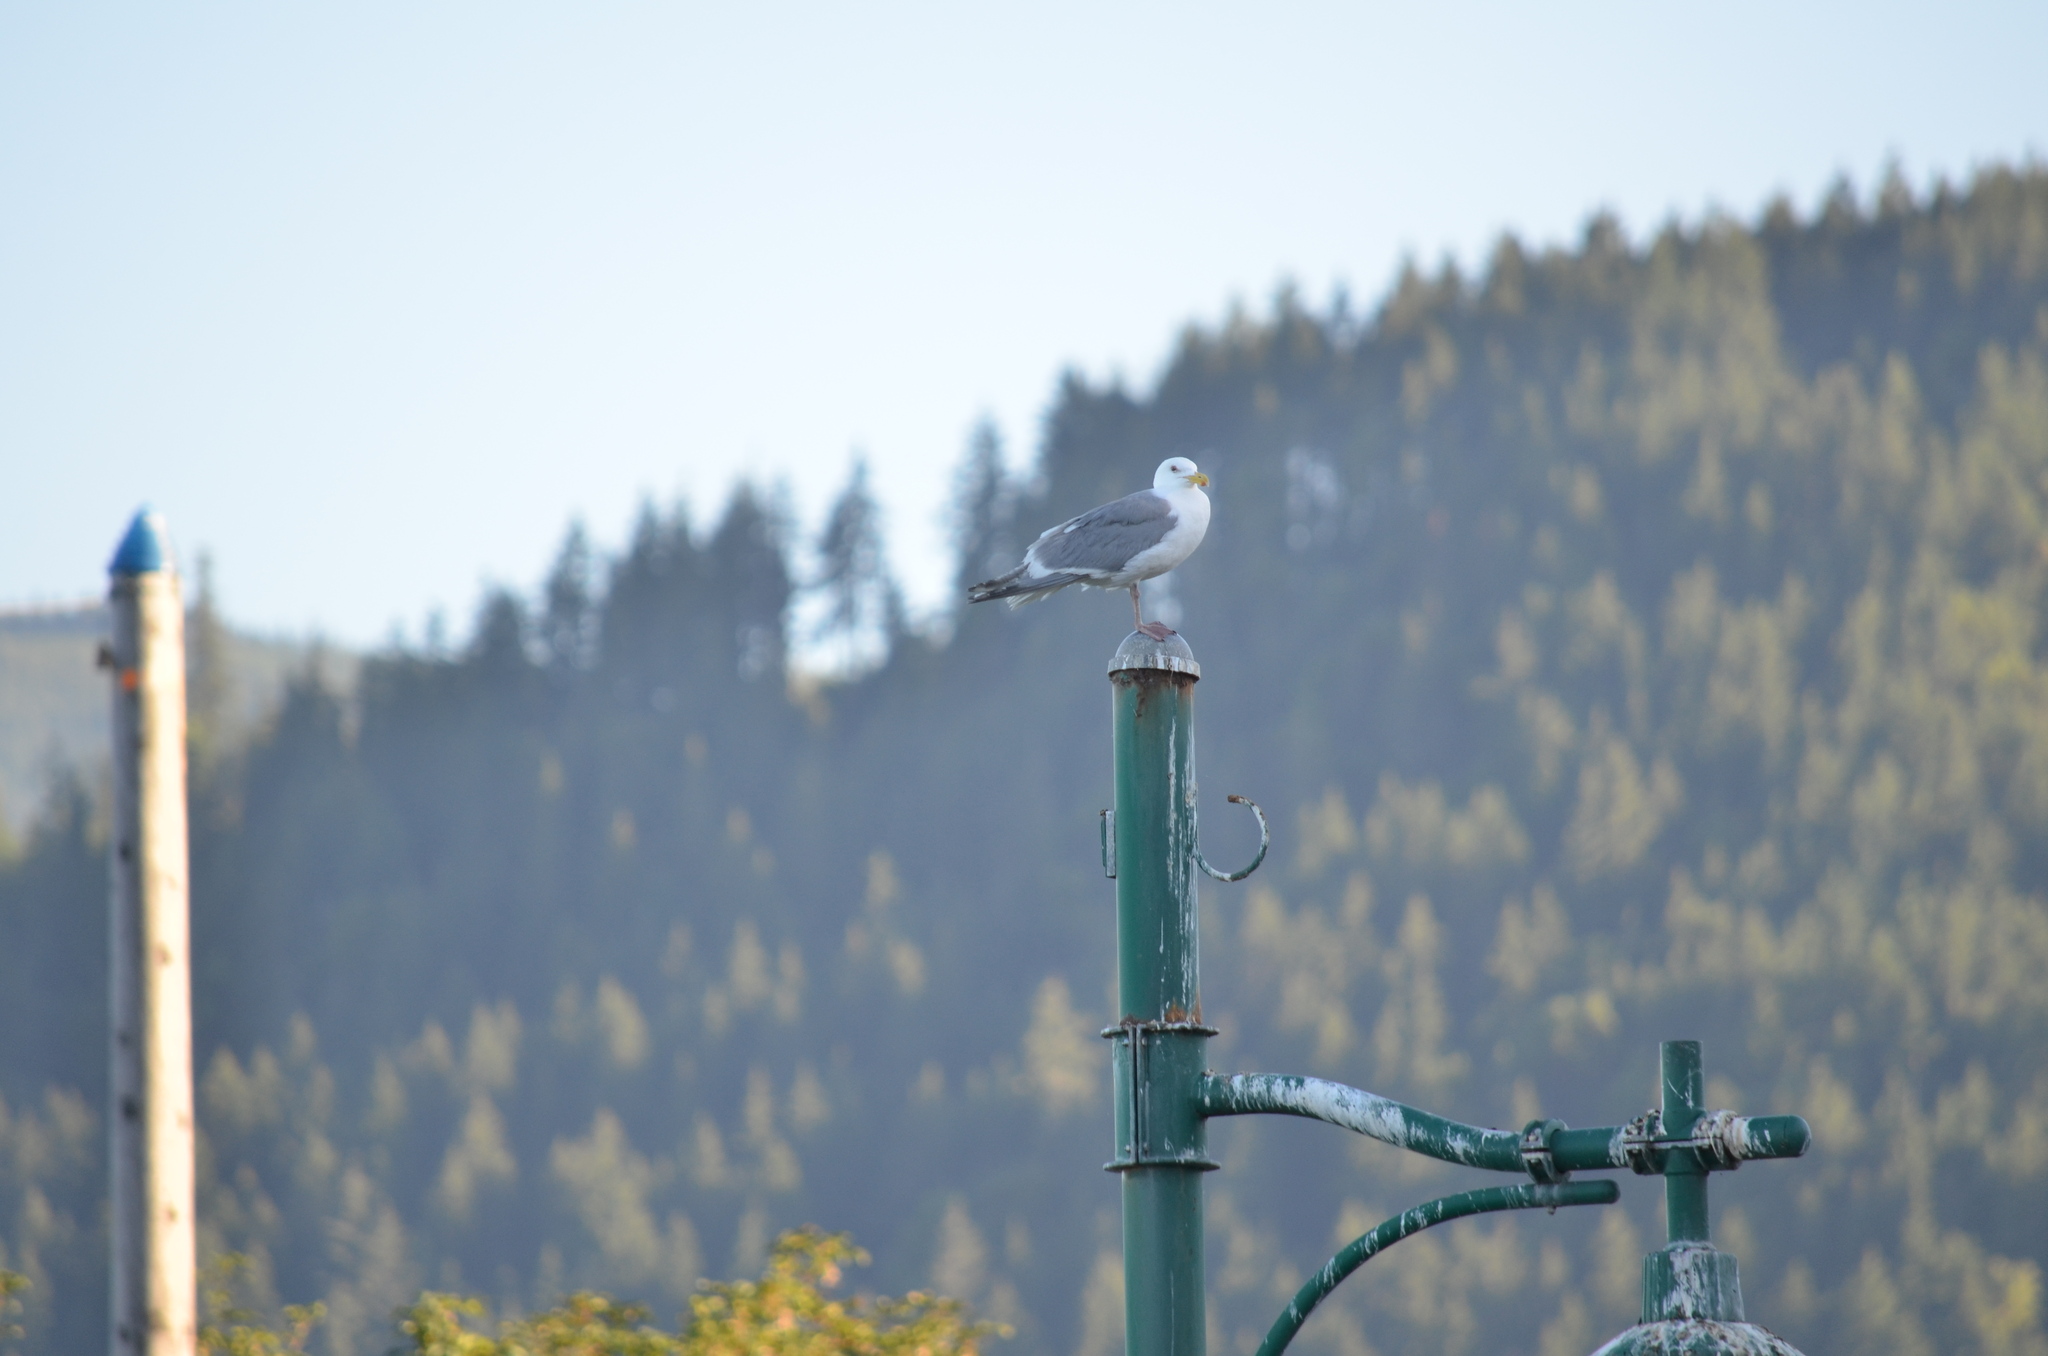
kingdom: Animalia
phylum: Chordata
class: Aves
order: Charadriiformes
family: Laridae
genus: Larus
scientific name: Larus glaucescens
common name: Glaucous-winged gull
